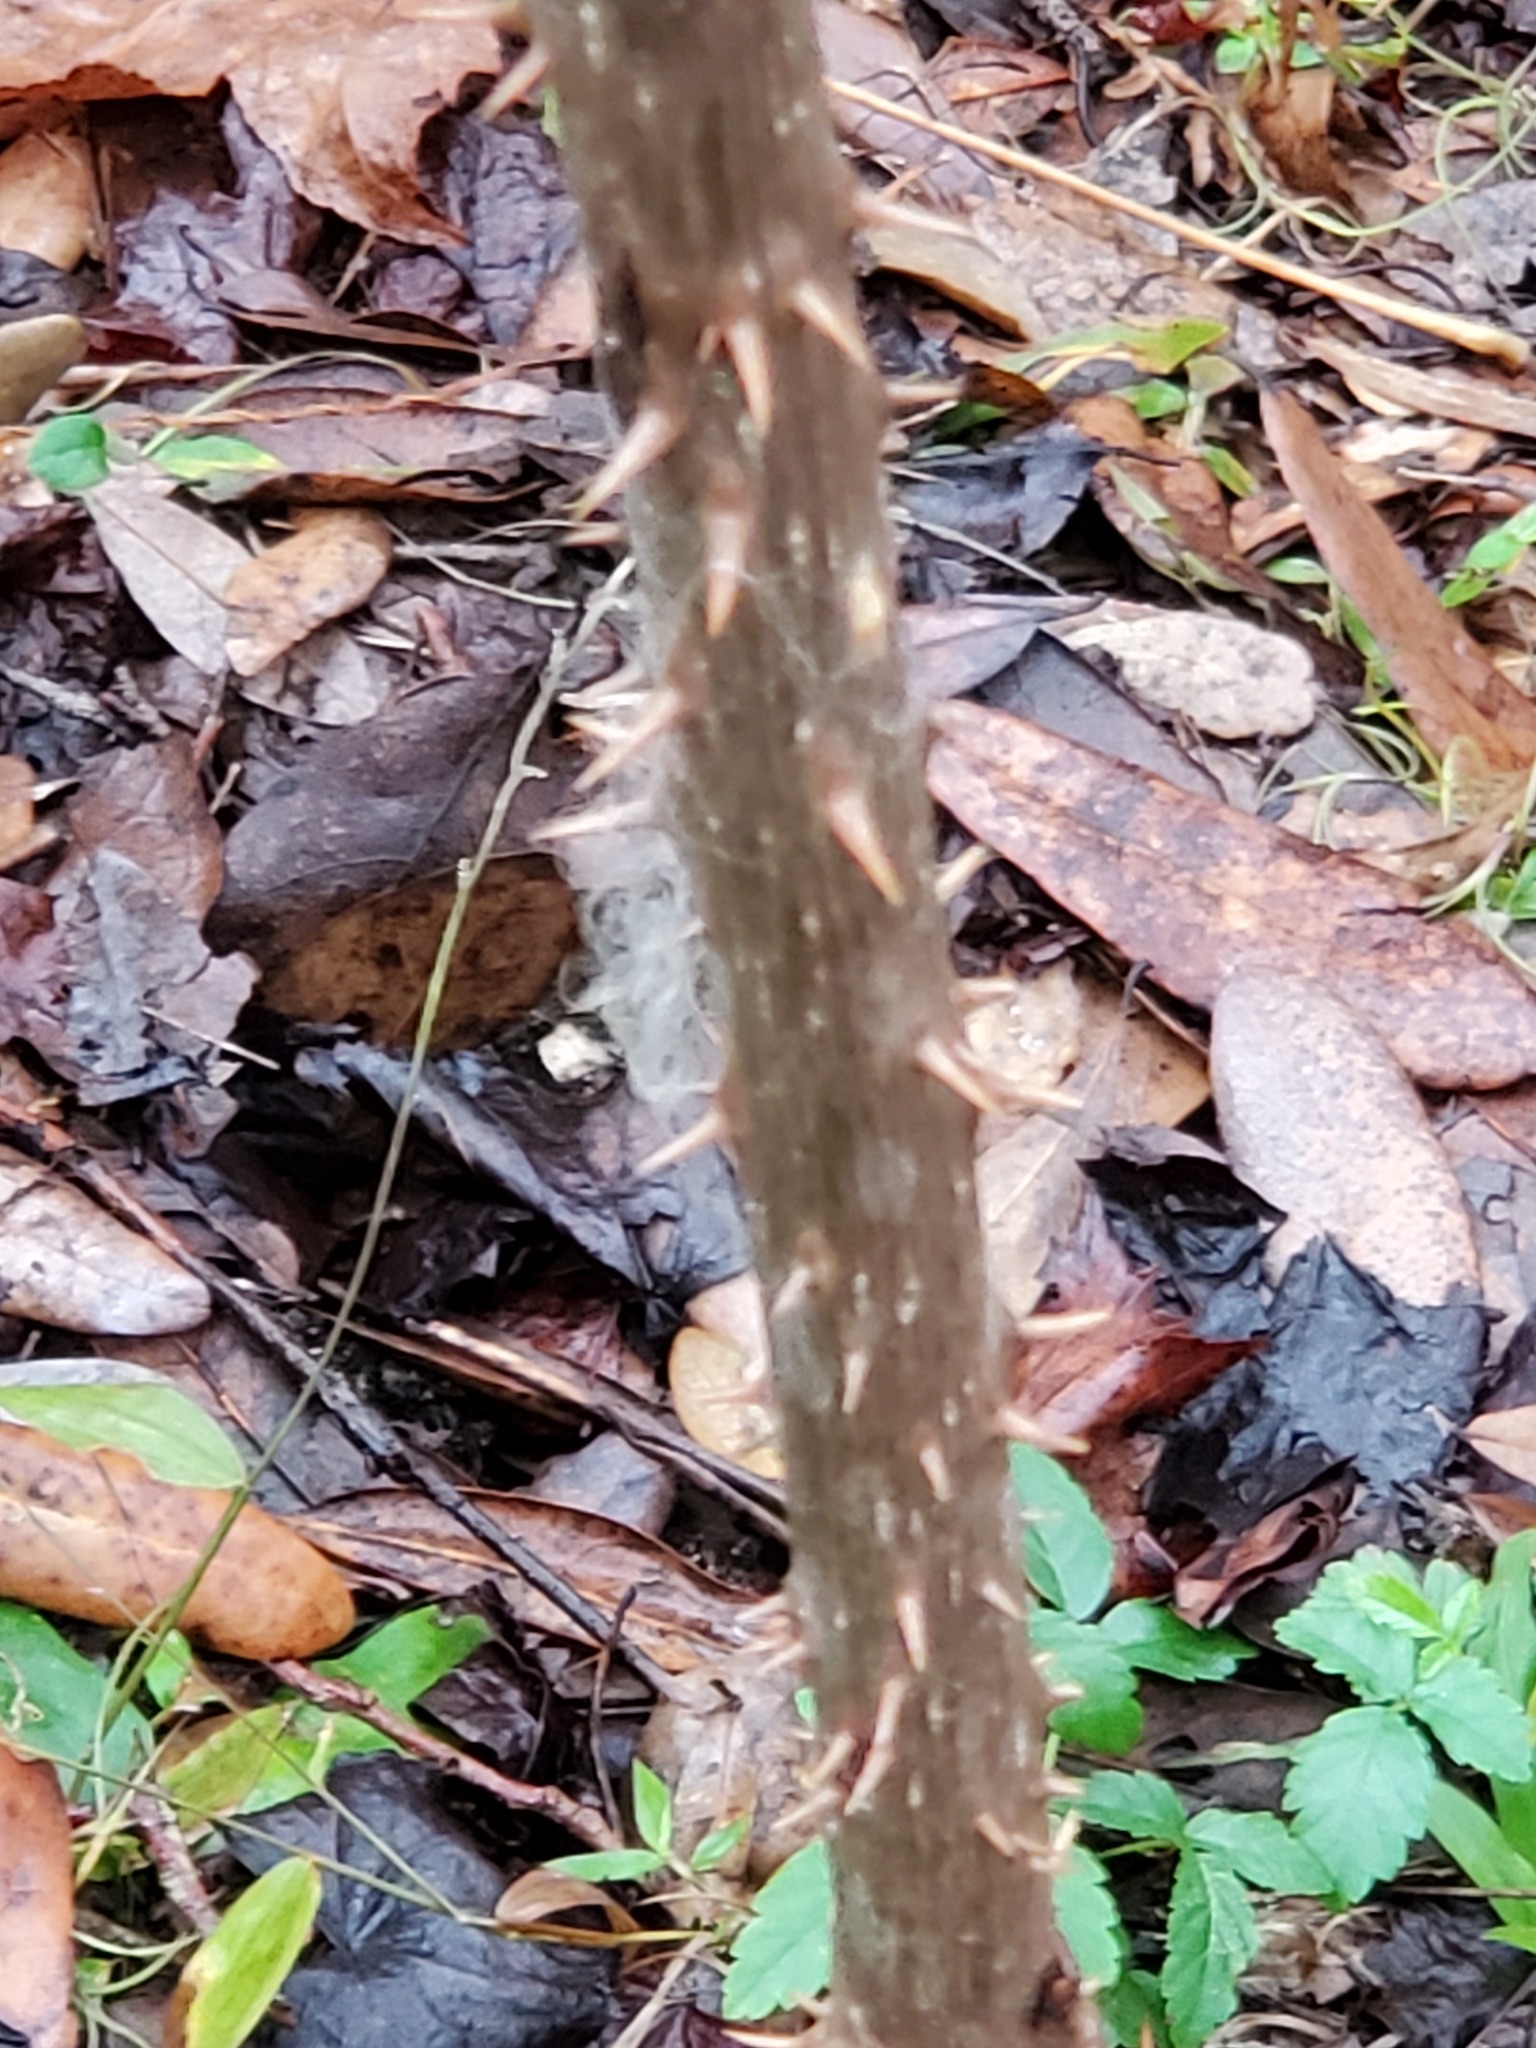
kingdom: Plantae
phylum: Tracheophyta
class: Magnoliopsida
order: Apiales
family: Araliaceae
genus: Aralia
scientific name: Aralia spinosa
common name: Hercules'-club
